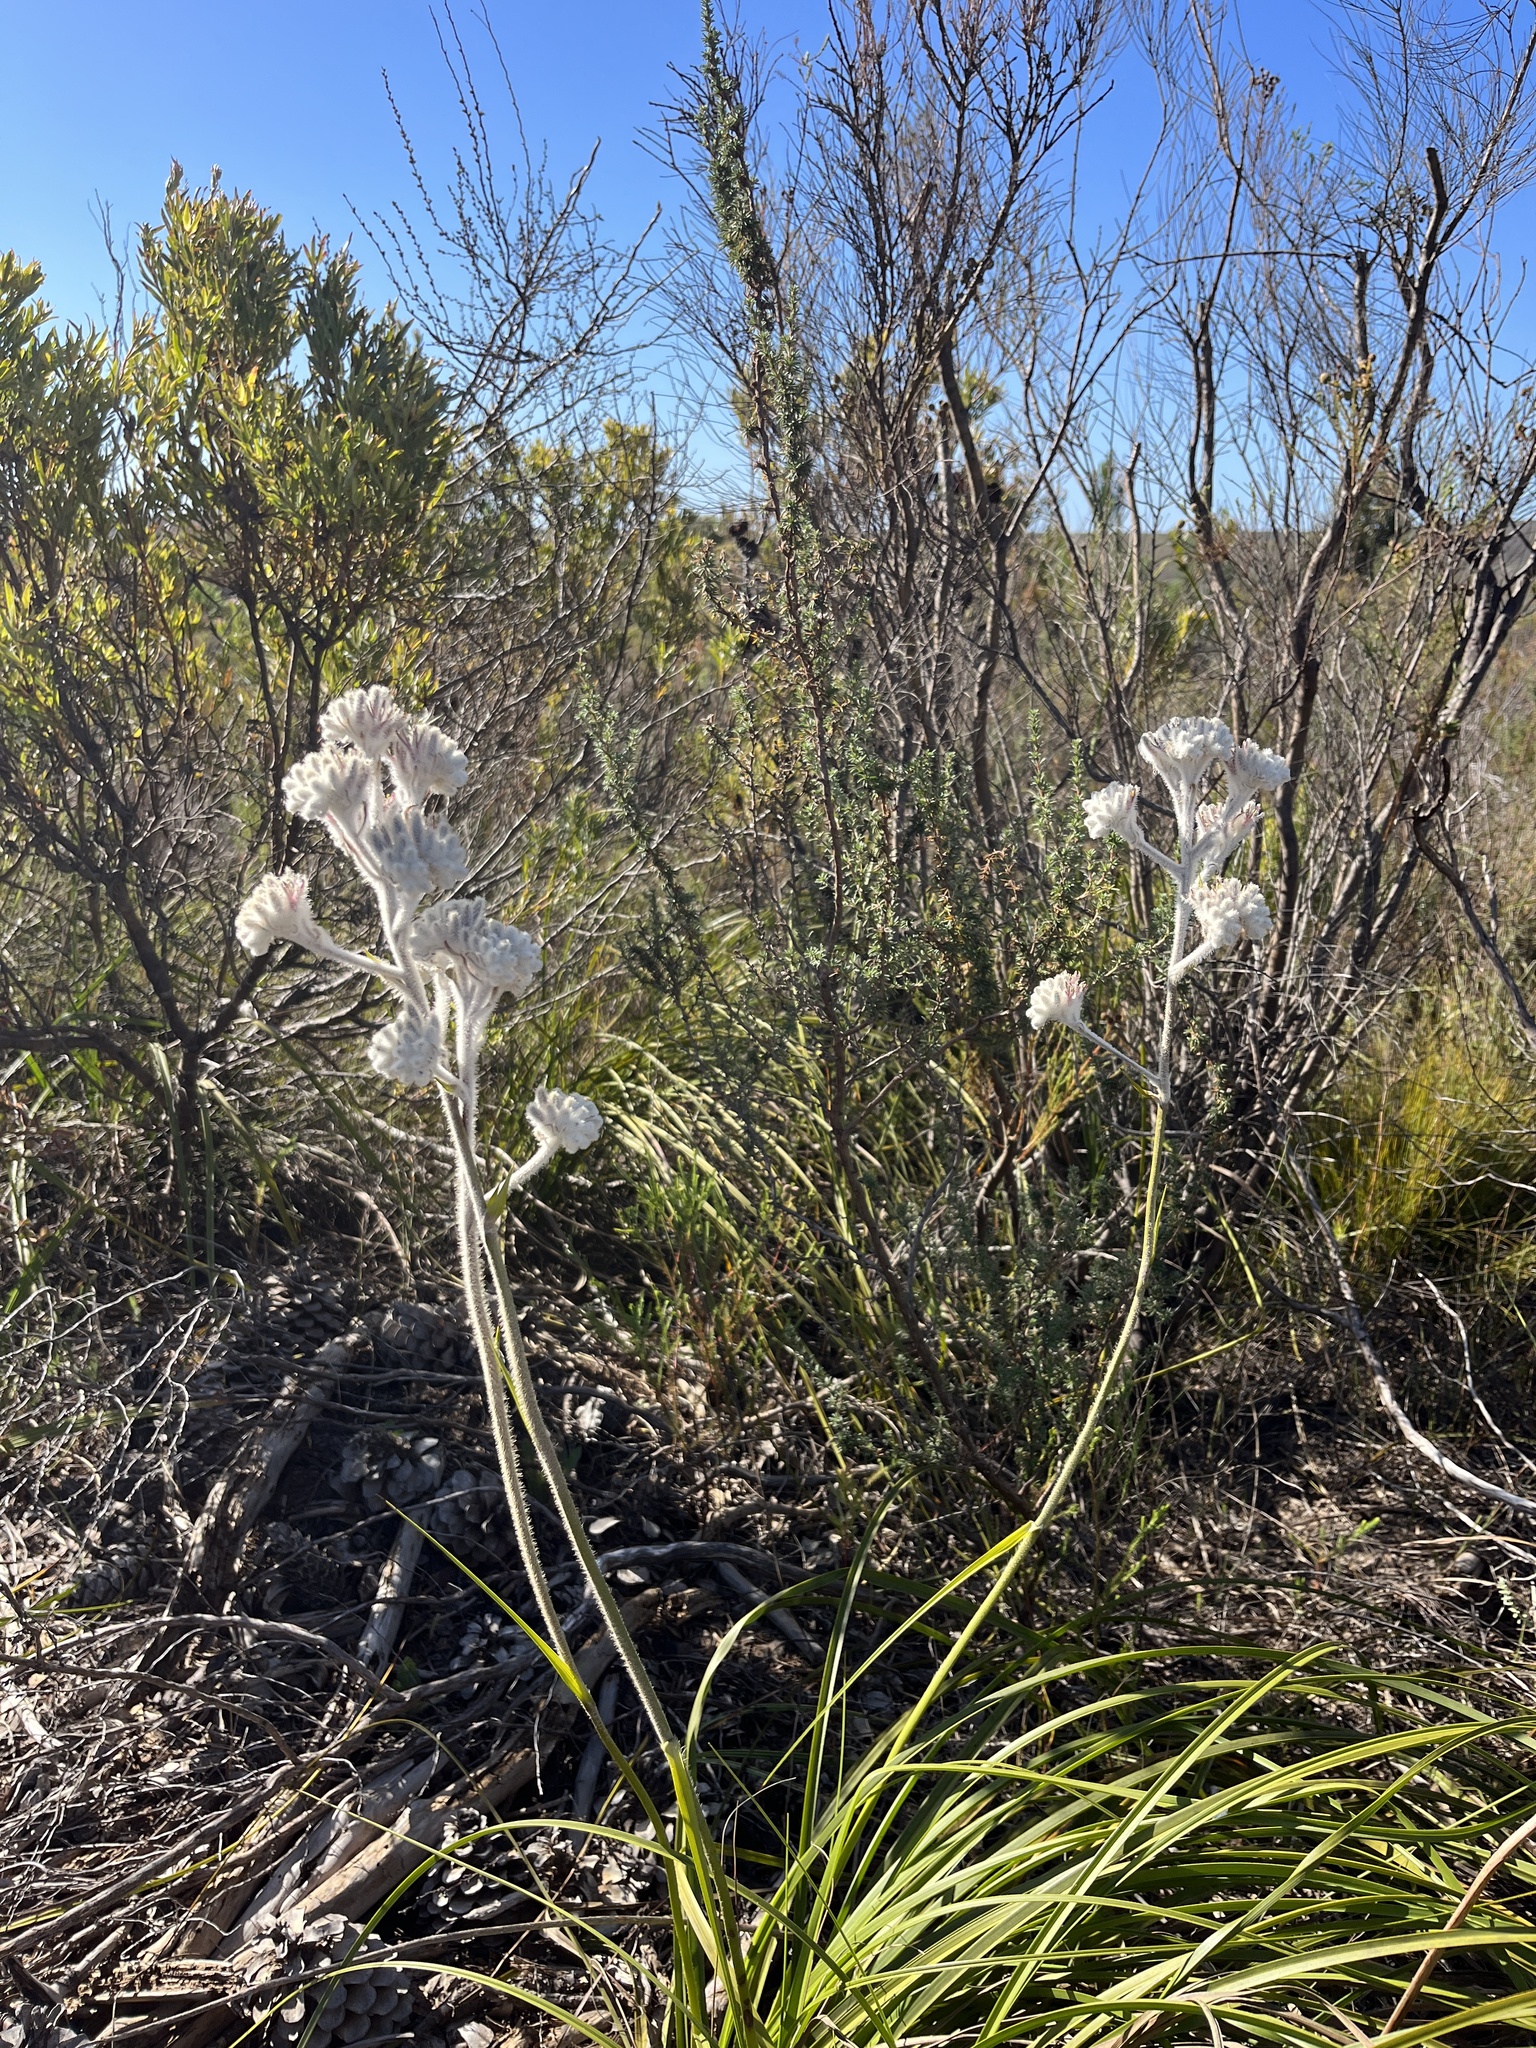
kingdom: Plantae
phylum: Tracheophyta
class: Liliopsida
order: Asparagales
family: Lanariaceae
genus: Lanaria
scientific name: Lanaria lanata
